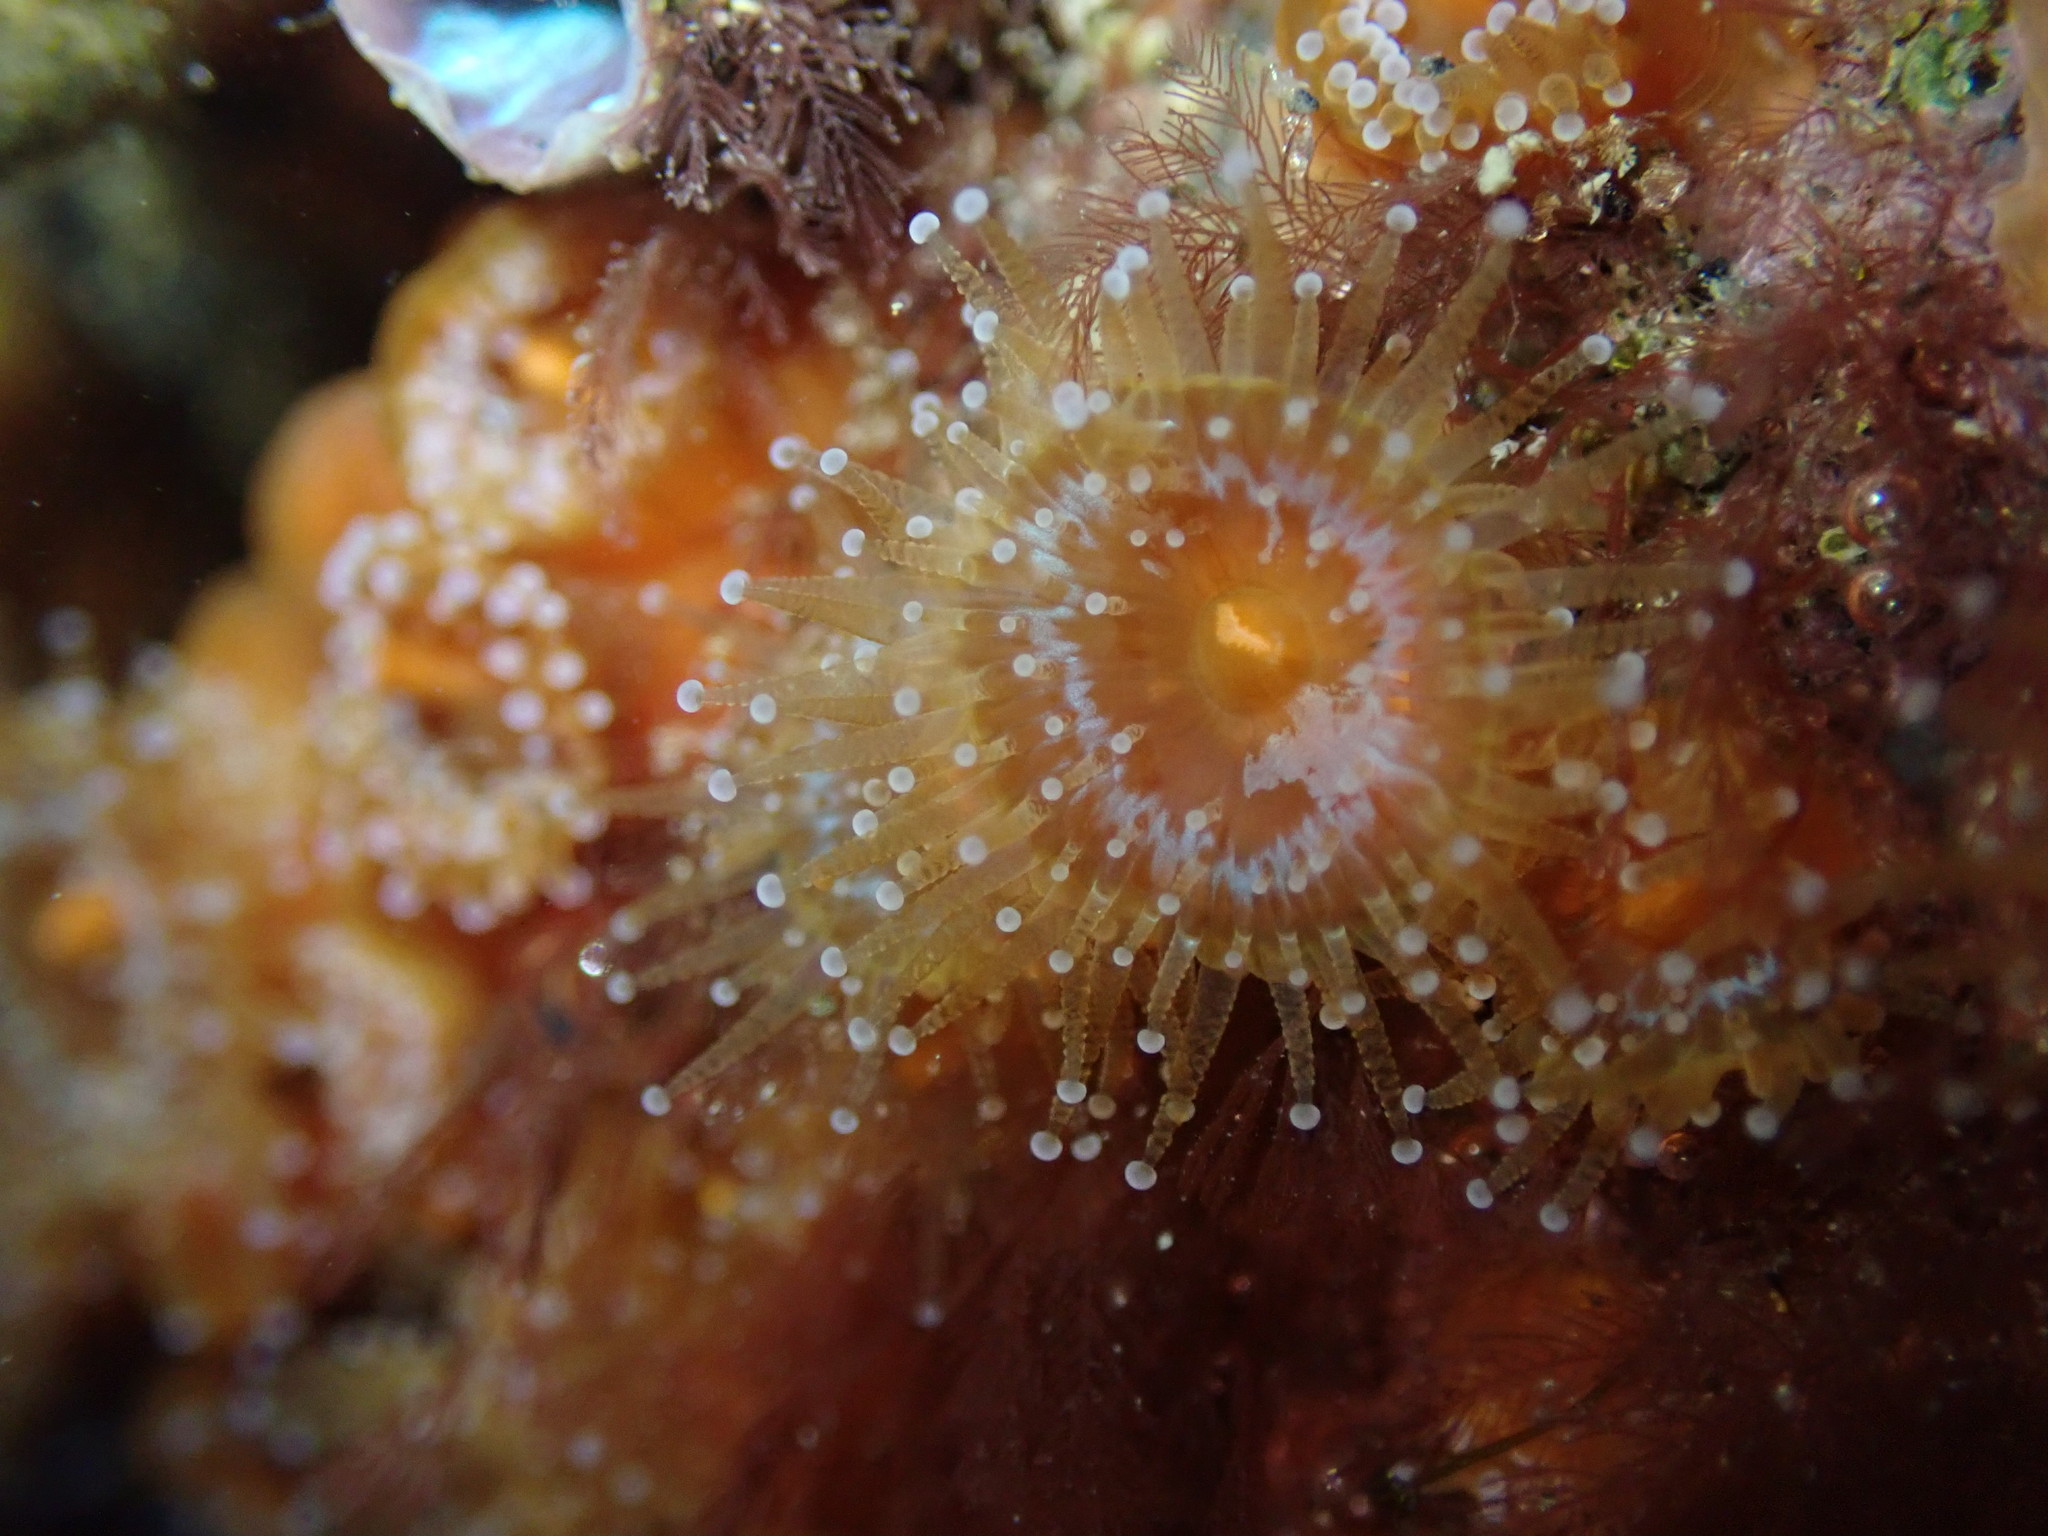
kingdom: Animalia
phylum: Cnidaria
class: Anthozoa
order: Corallimorpharia
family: Corallimorphidae
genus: Corynactis
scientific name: Corynactis australis
